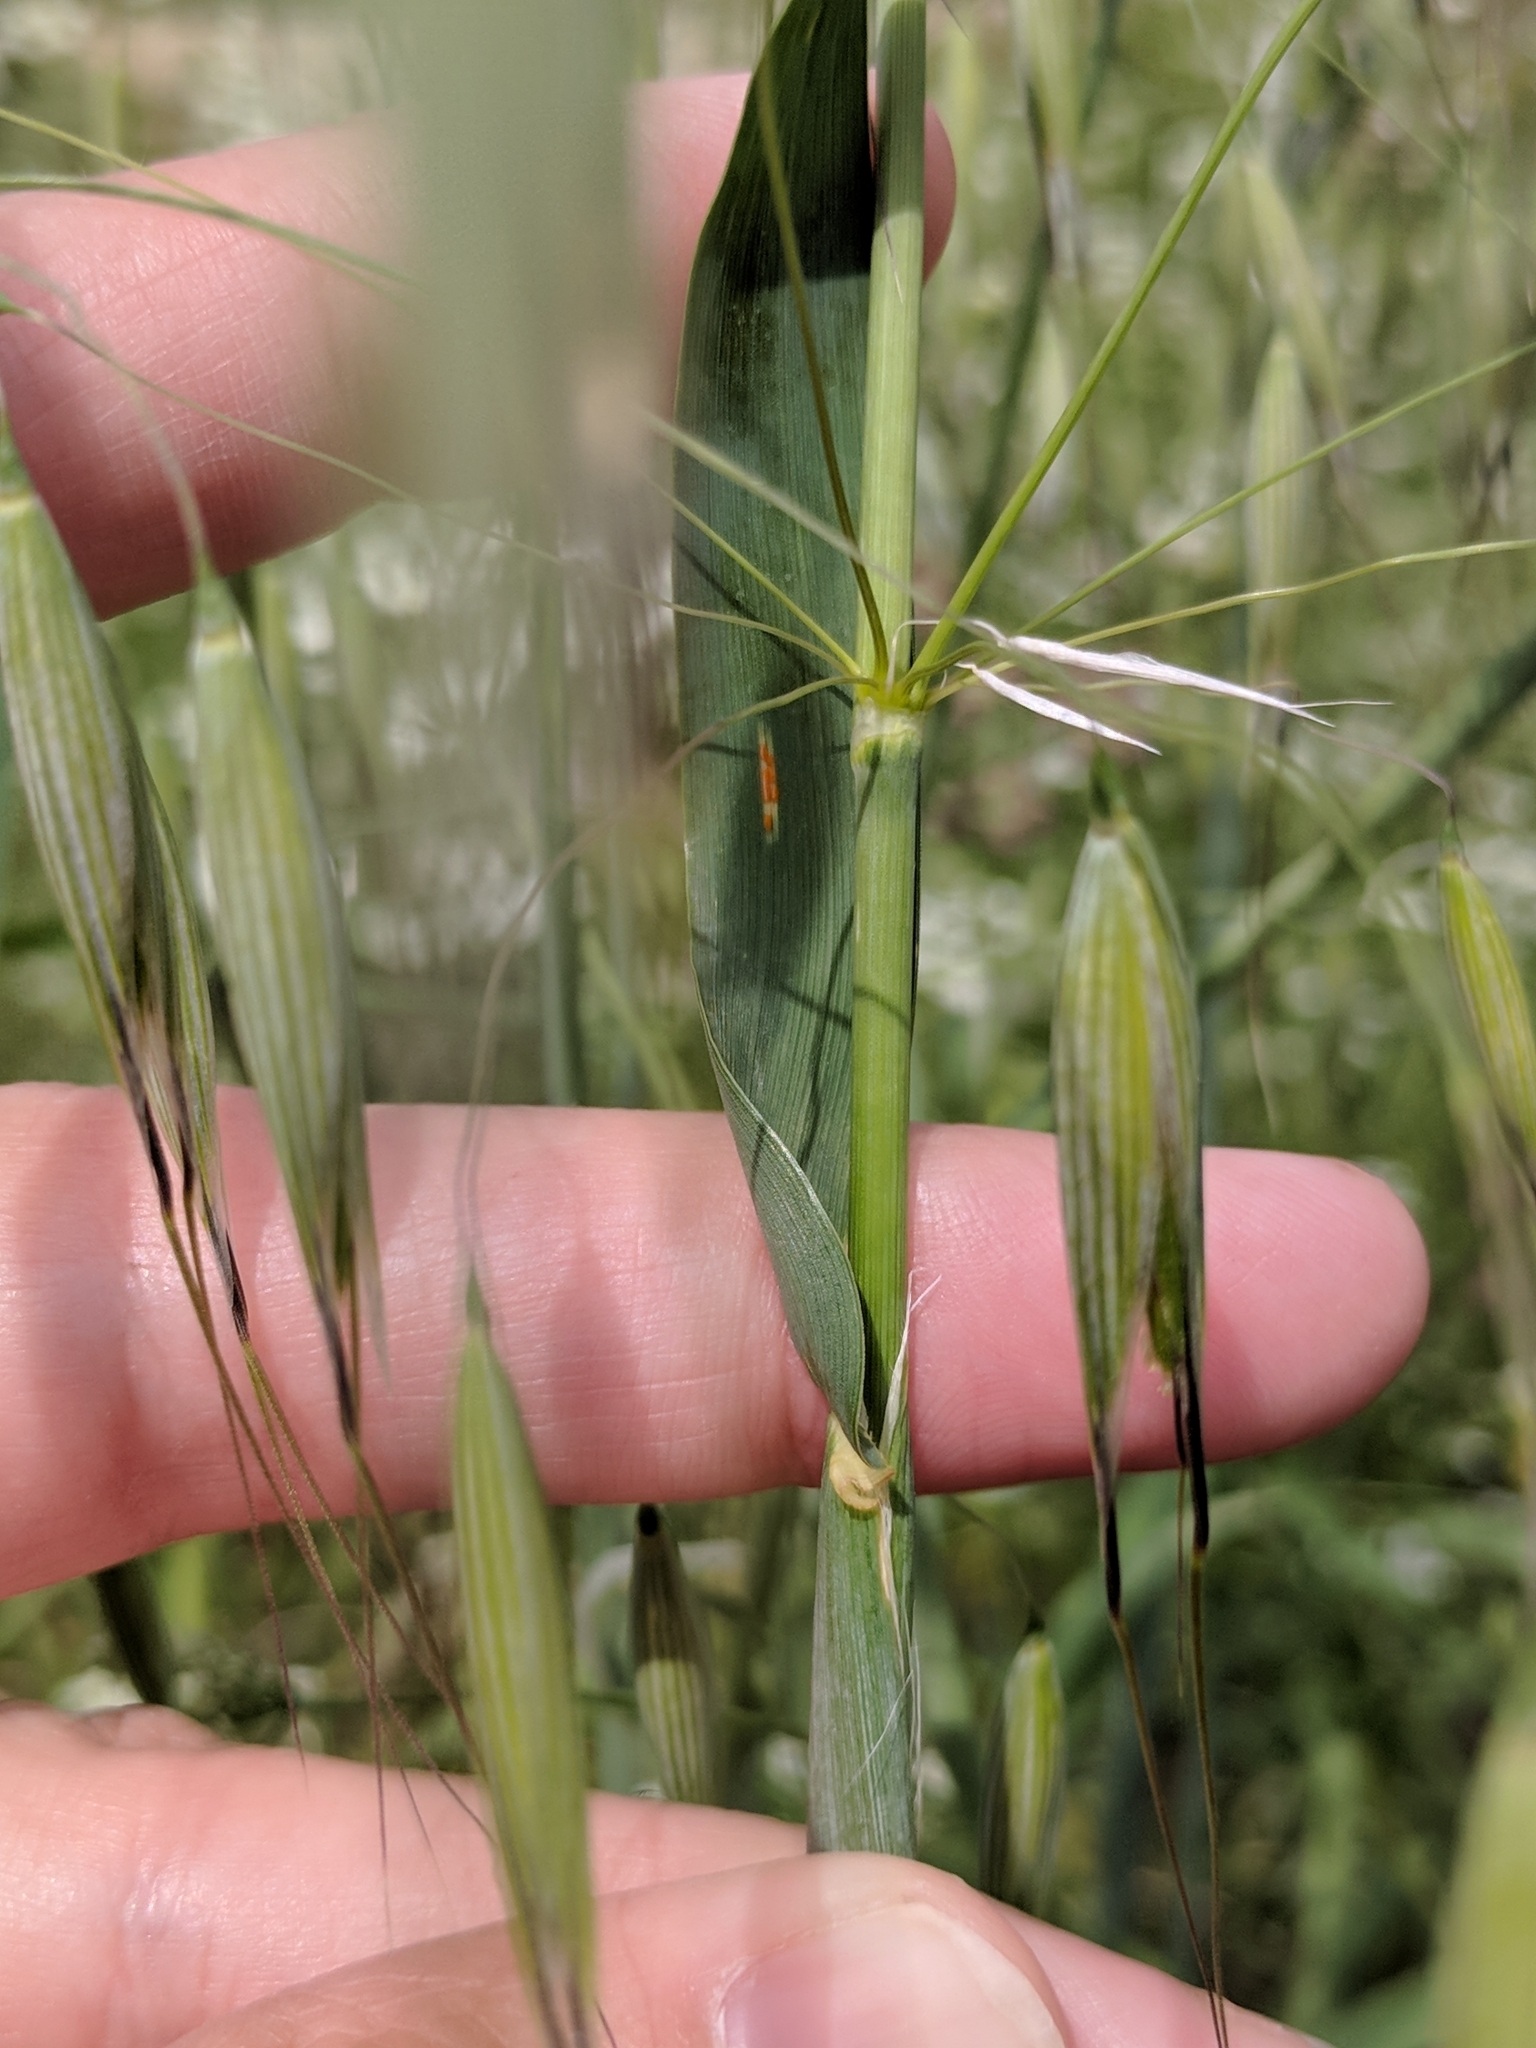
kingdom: Plantae
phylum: Tracheophyta
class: Liliopsida
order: Poales
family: Poaceae
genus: Avena
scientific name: Avena sativa
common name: Oat
